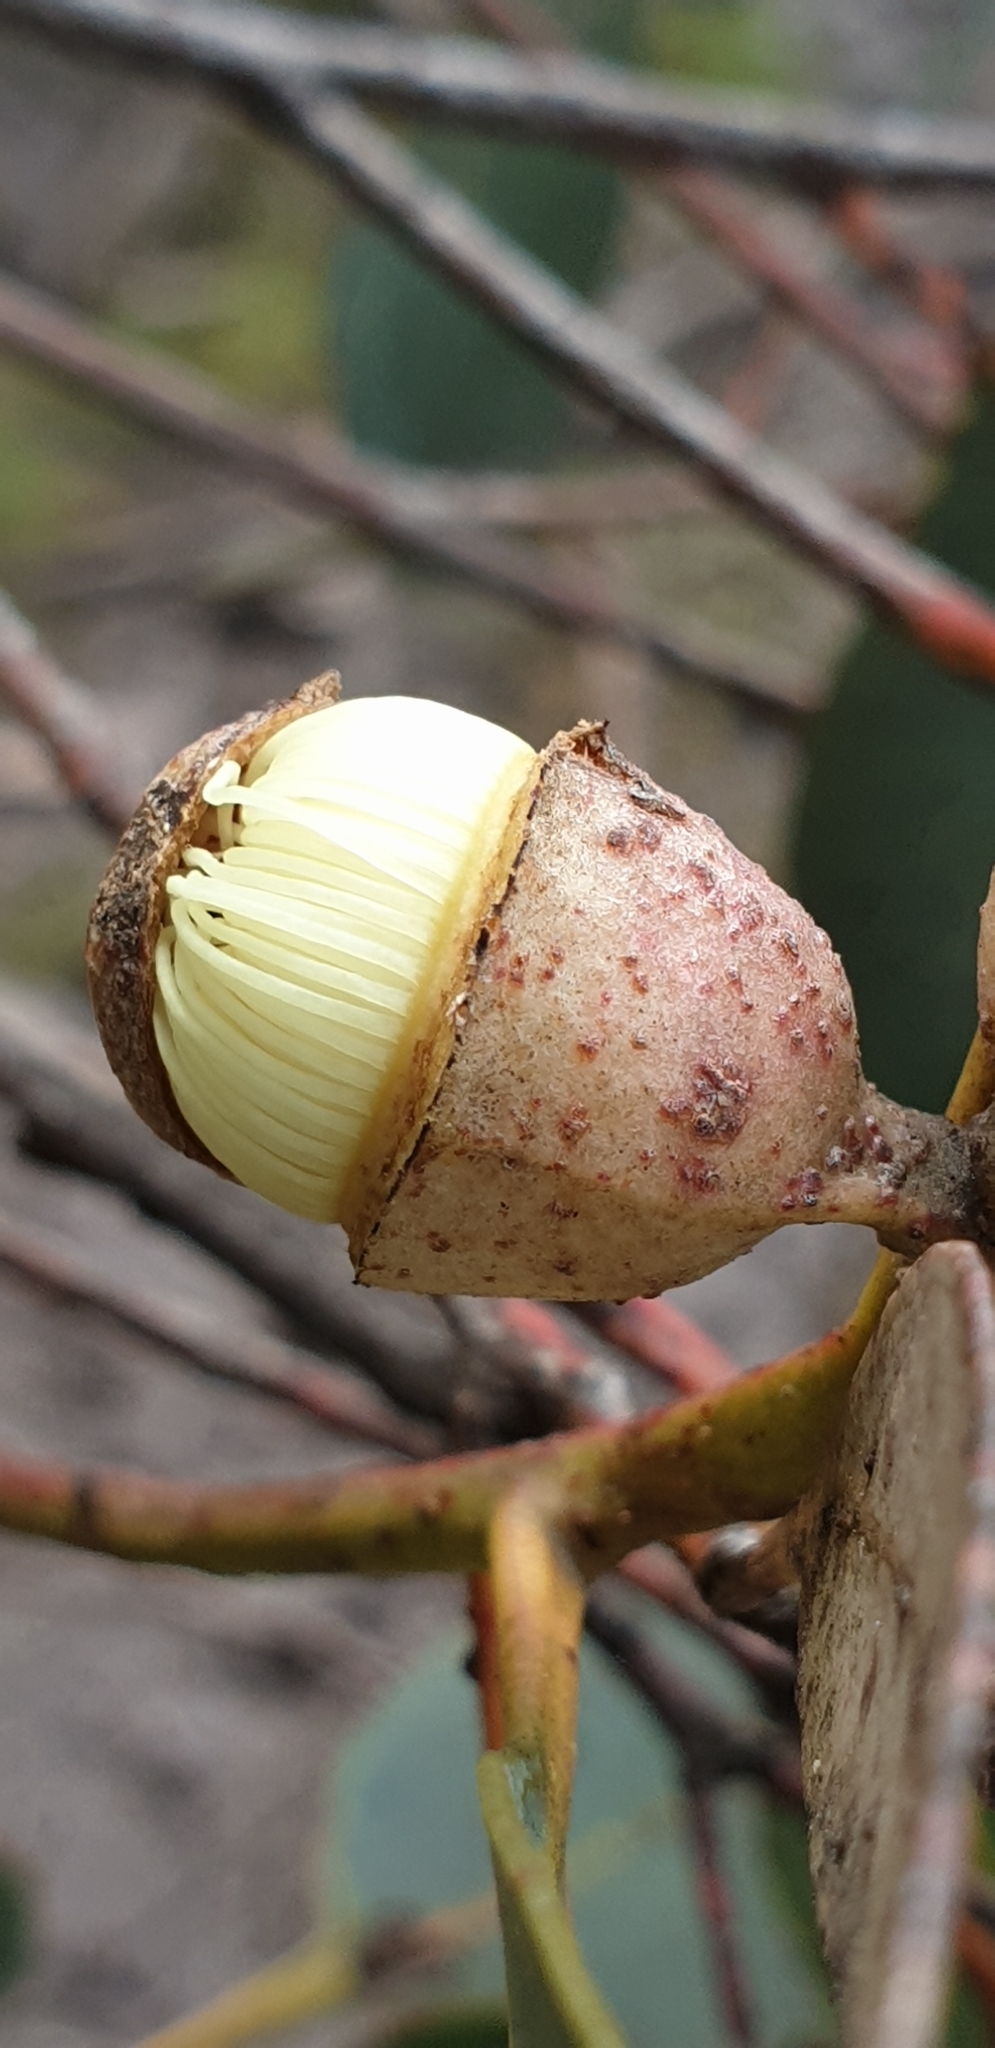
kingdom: Plantae
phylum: Tracheophyta
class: Magnoliopsida
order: Myrtales
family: Myrtaceae
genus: Eucalyptus
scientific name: Eucalyptus cosmophylla
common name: Bog-gum
